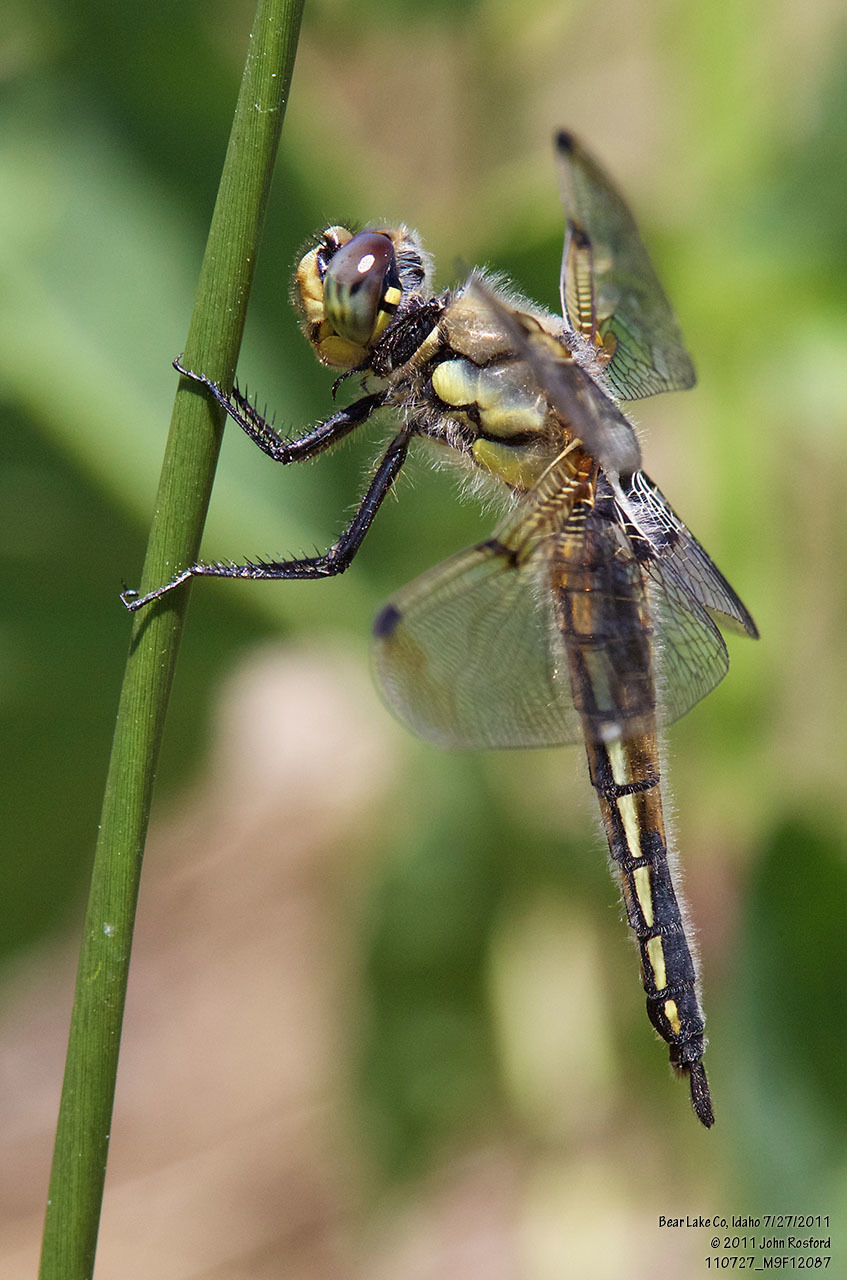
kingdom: Animalia
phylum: Arthropoda
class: Insecta
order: Odonata
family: Libellulidae
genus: Libellula
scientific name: Libellula quadrimaculata
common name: Four-spotted chaser
